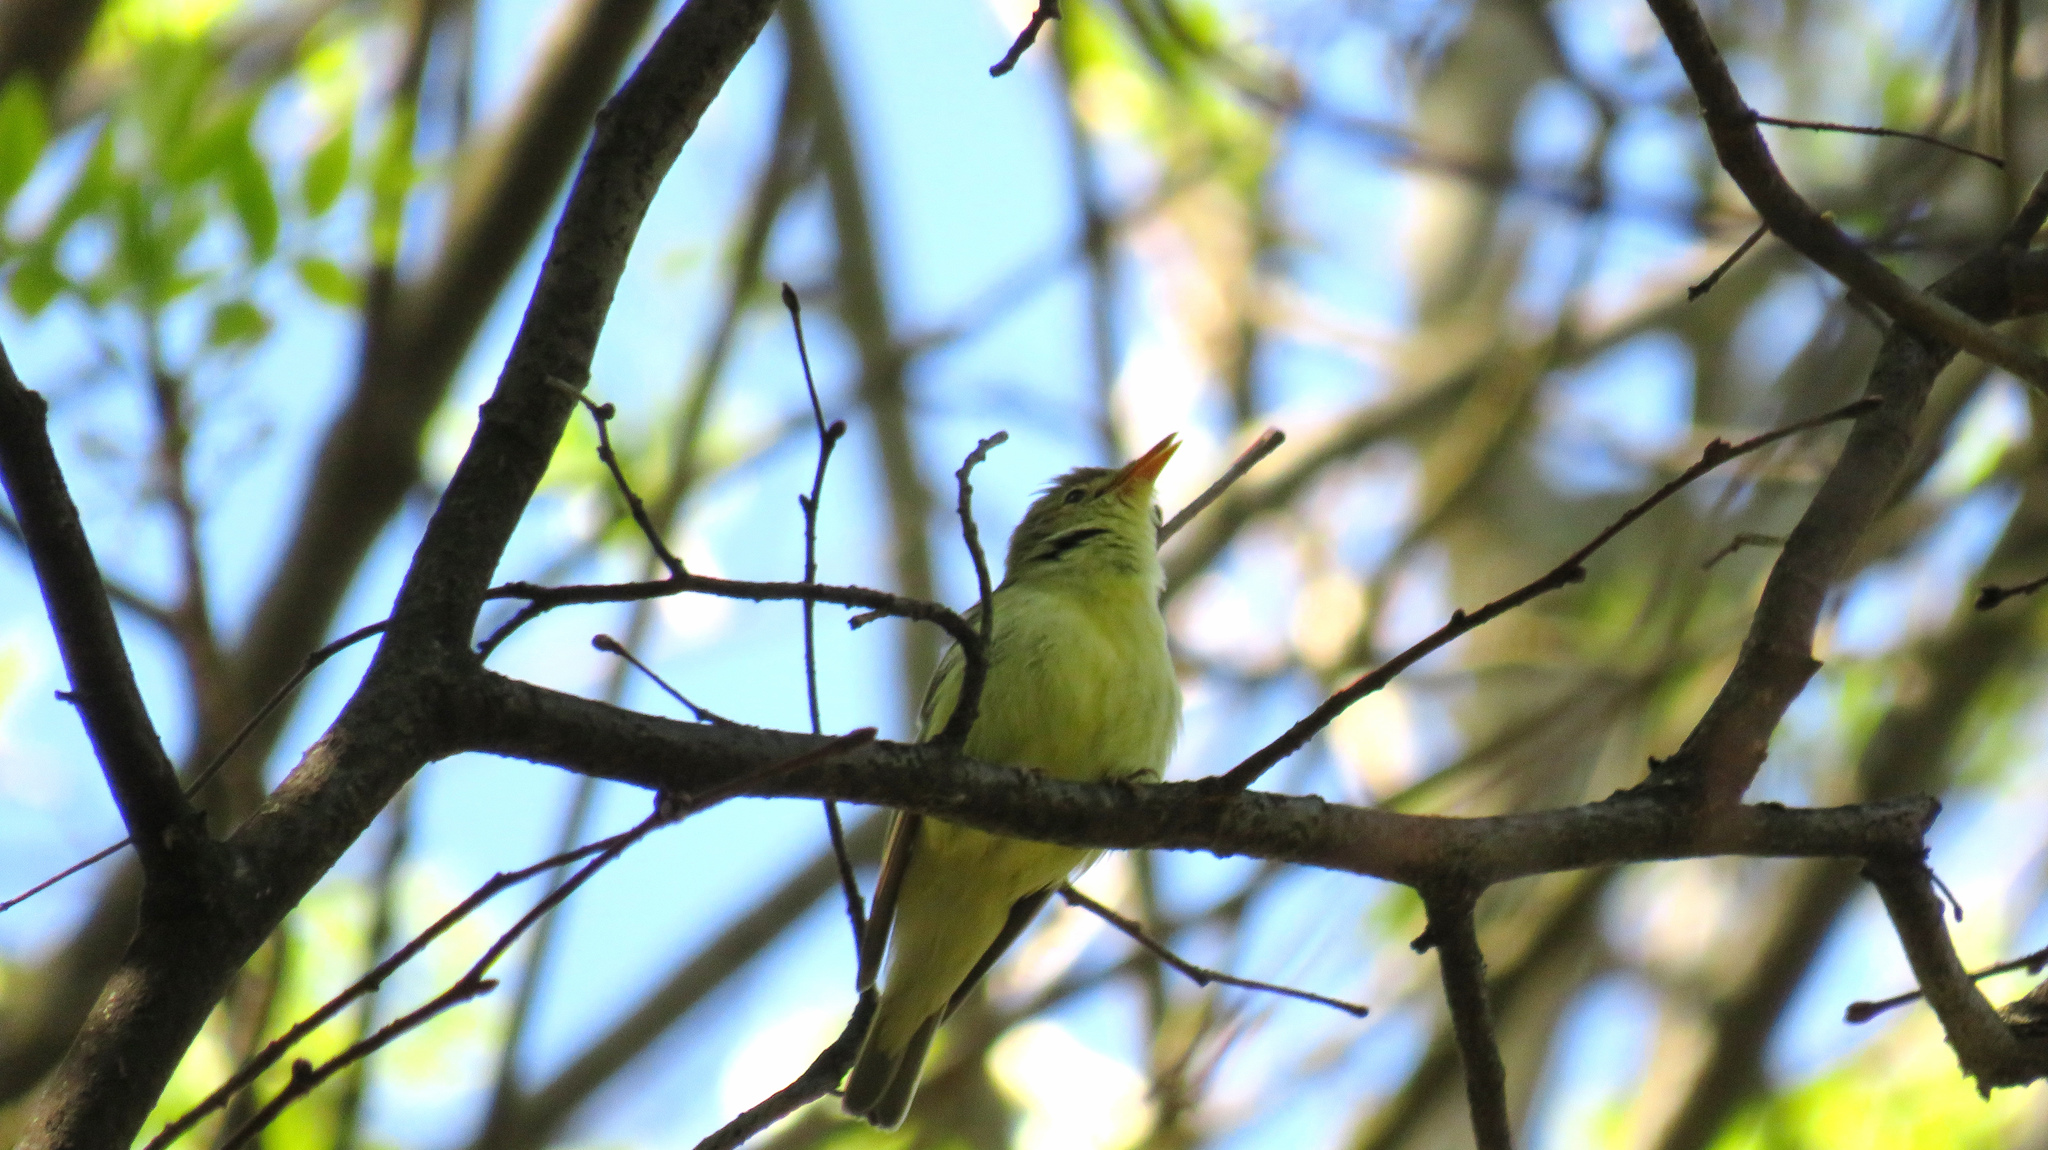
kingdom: Animalia
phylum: Chordata
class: Aves
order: Passeriformes
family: Acrocephalidae
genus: Hippolais
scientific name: Hippolais icterina
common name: Icterine warbler
